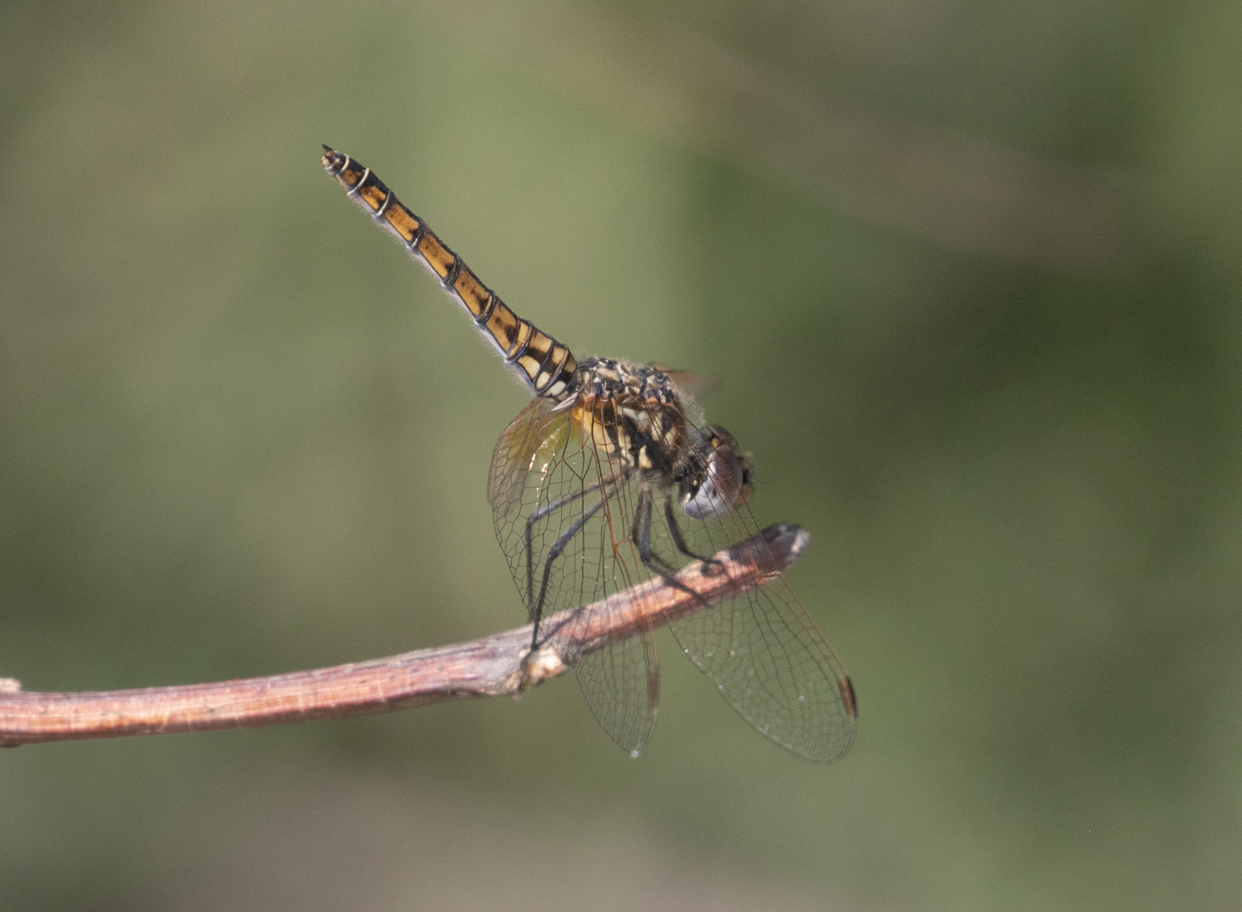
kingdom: Animalia
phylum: Arthropoda
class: Insecta
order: Odonata
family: Libellulidae
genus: Trithemis
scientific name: Trithemis annulata
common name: Violet dropwing
